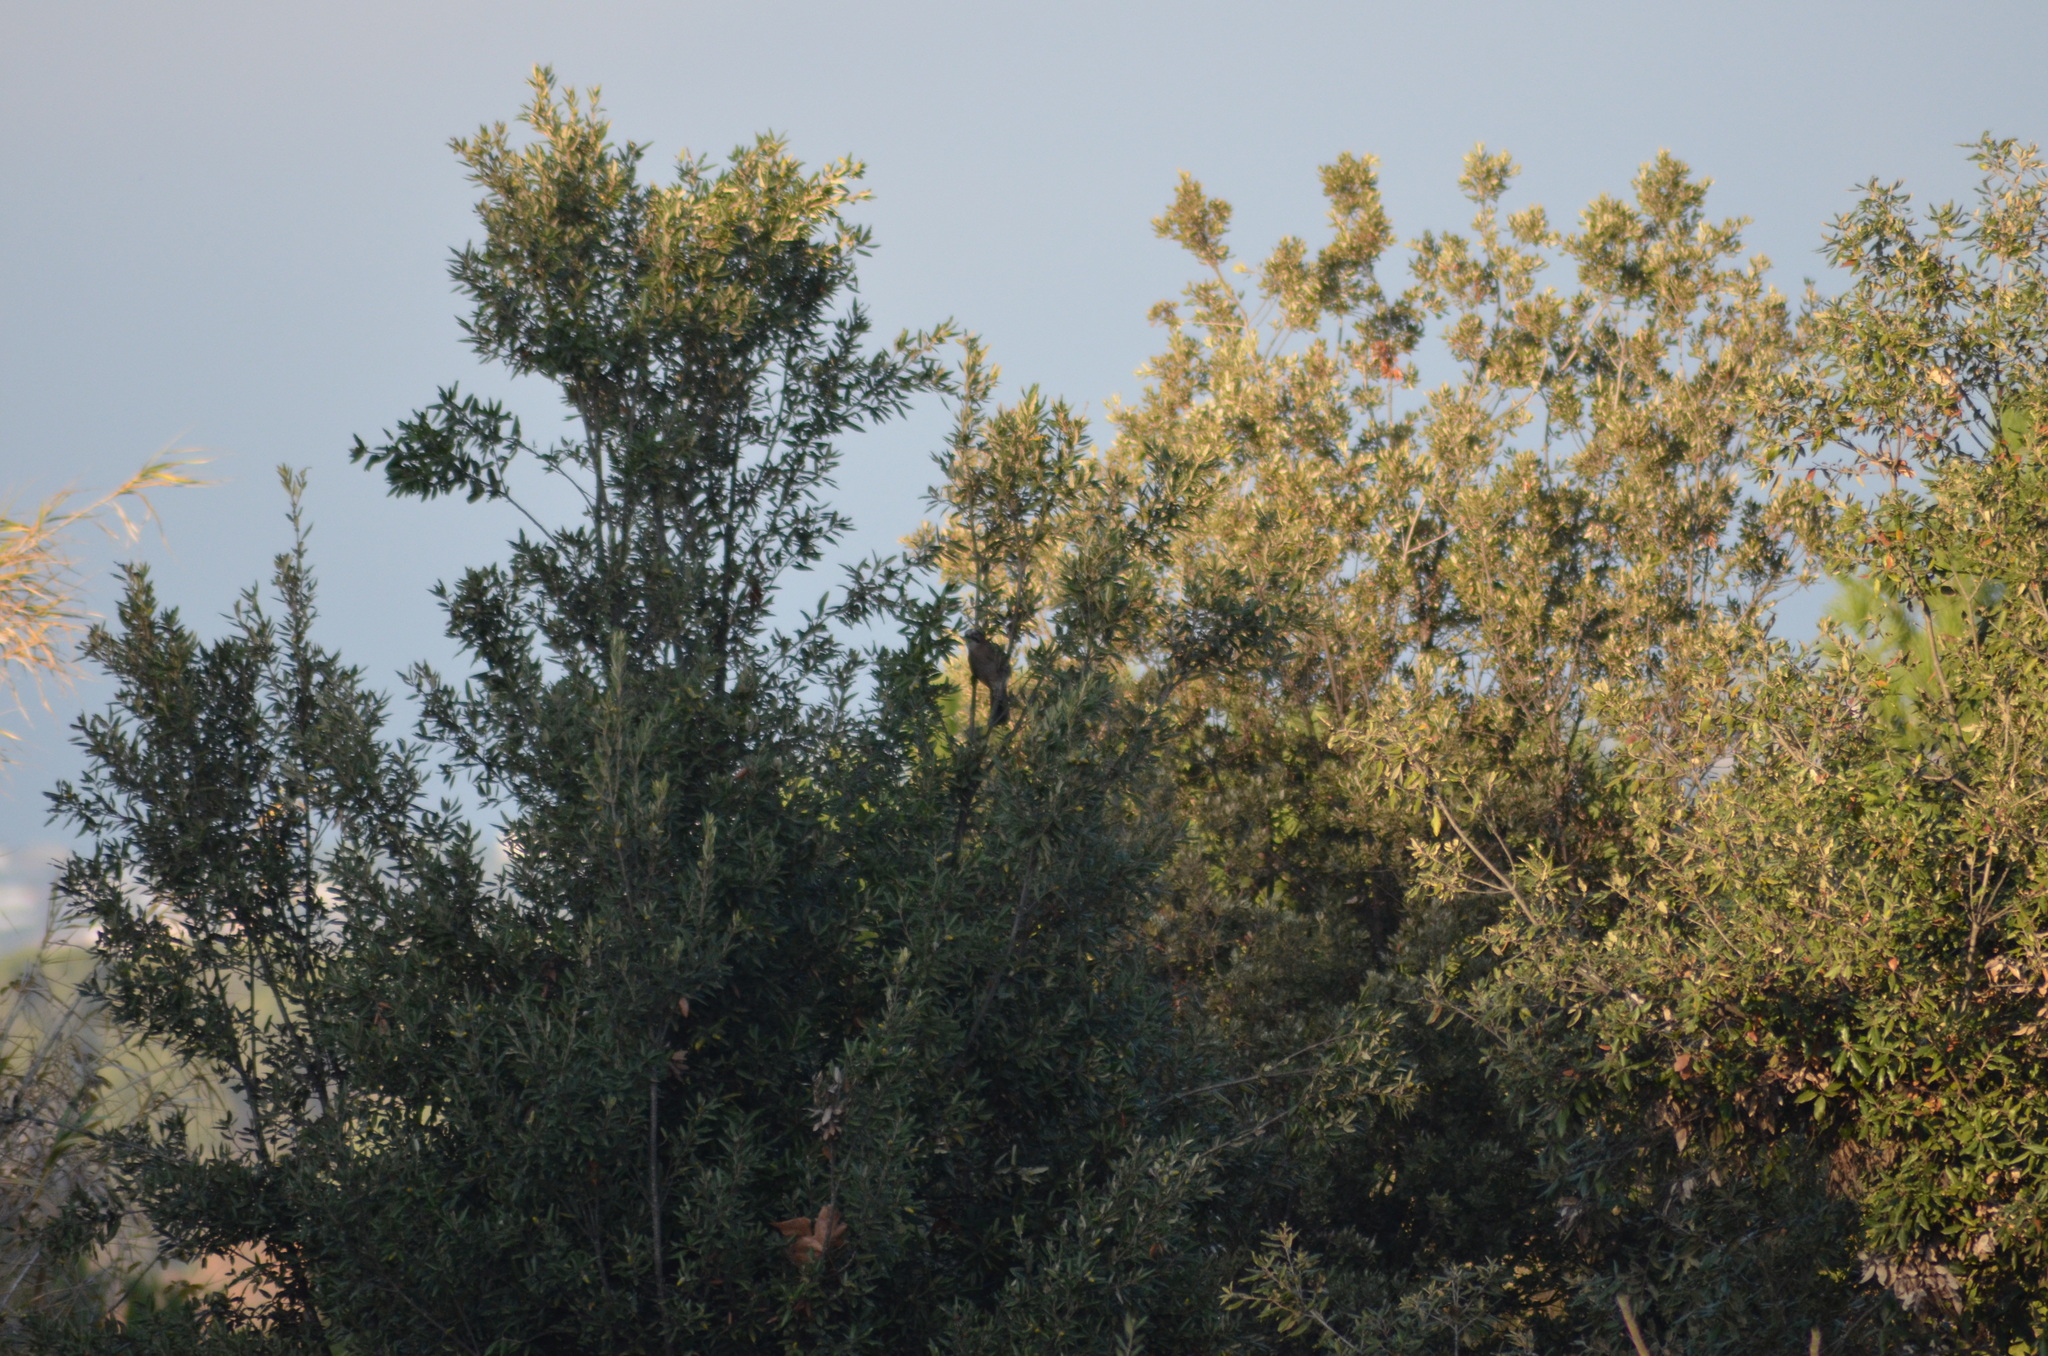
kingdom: Animalia
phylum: Chordata
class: Aves
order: Passeriformes
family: Corvidae
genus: Garrulus
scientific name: Garrulus glandarius
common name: Eurasian jay
